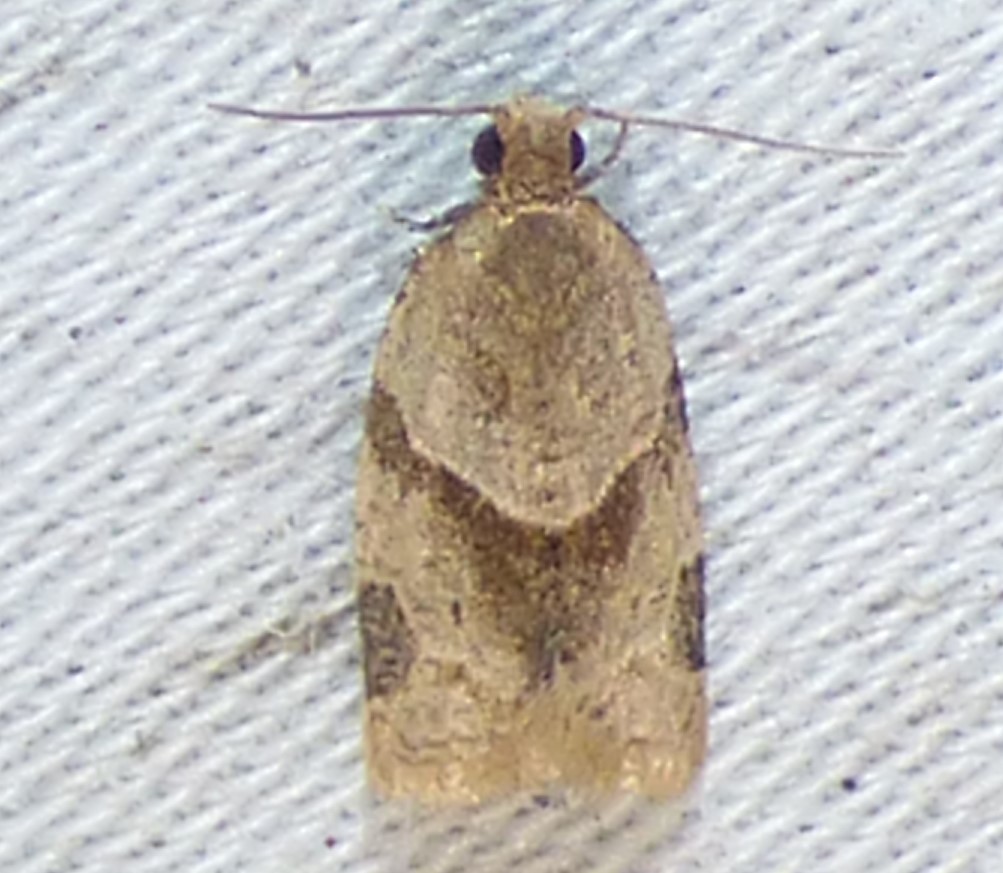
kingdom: Animalia
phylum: Arthropoda
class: Insecta
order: Lepidoptera
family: Tortricidae
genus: Clepsis
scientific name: Clepsis peritana
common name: Garden tortrix
